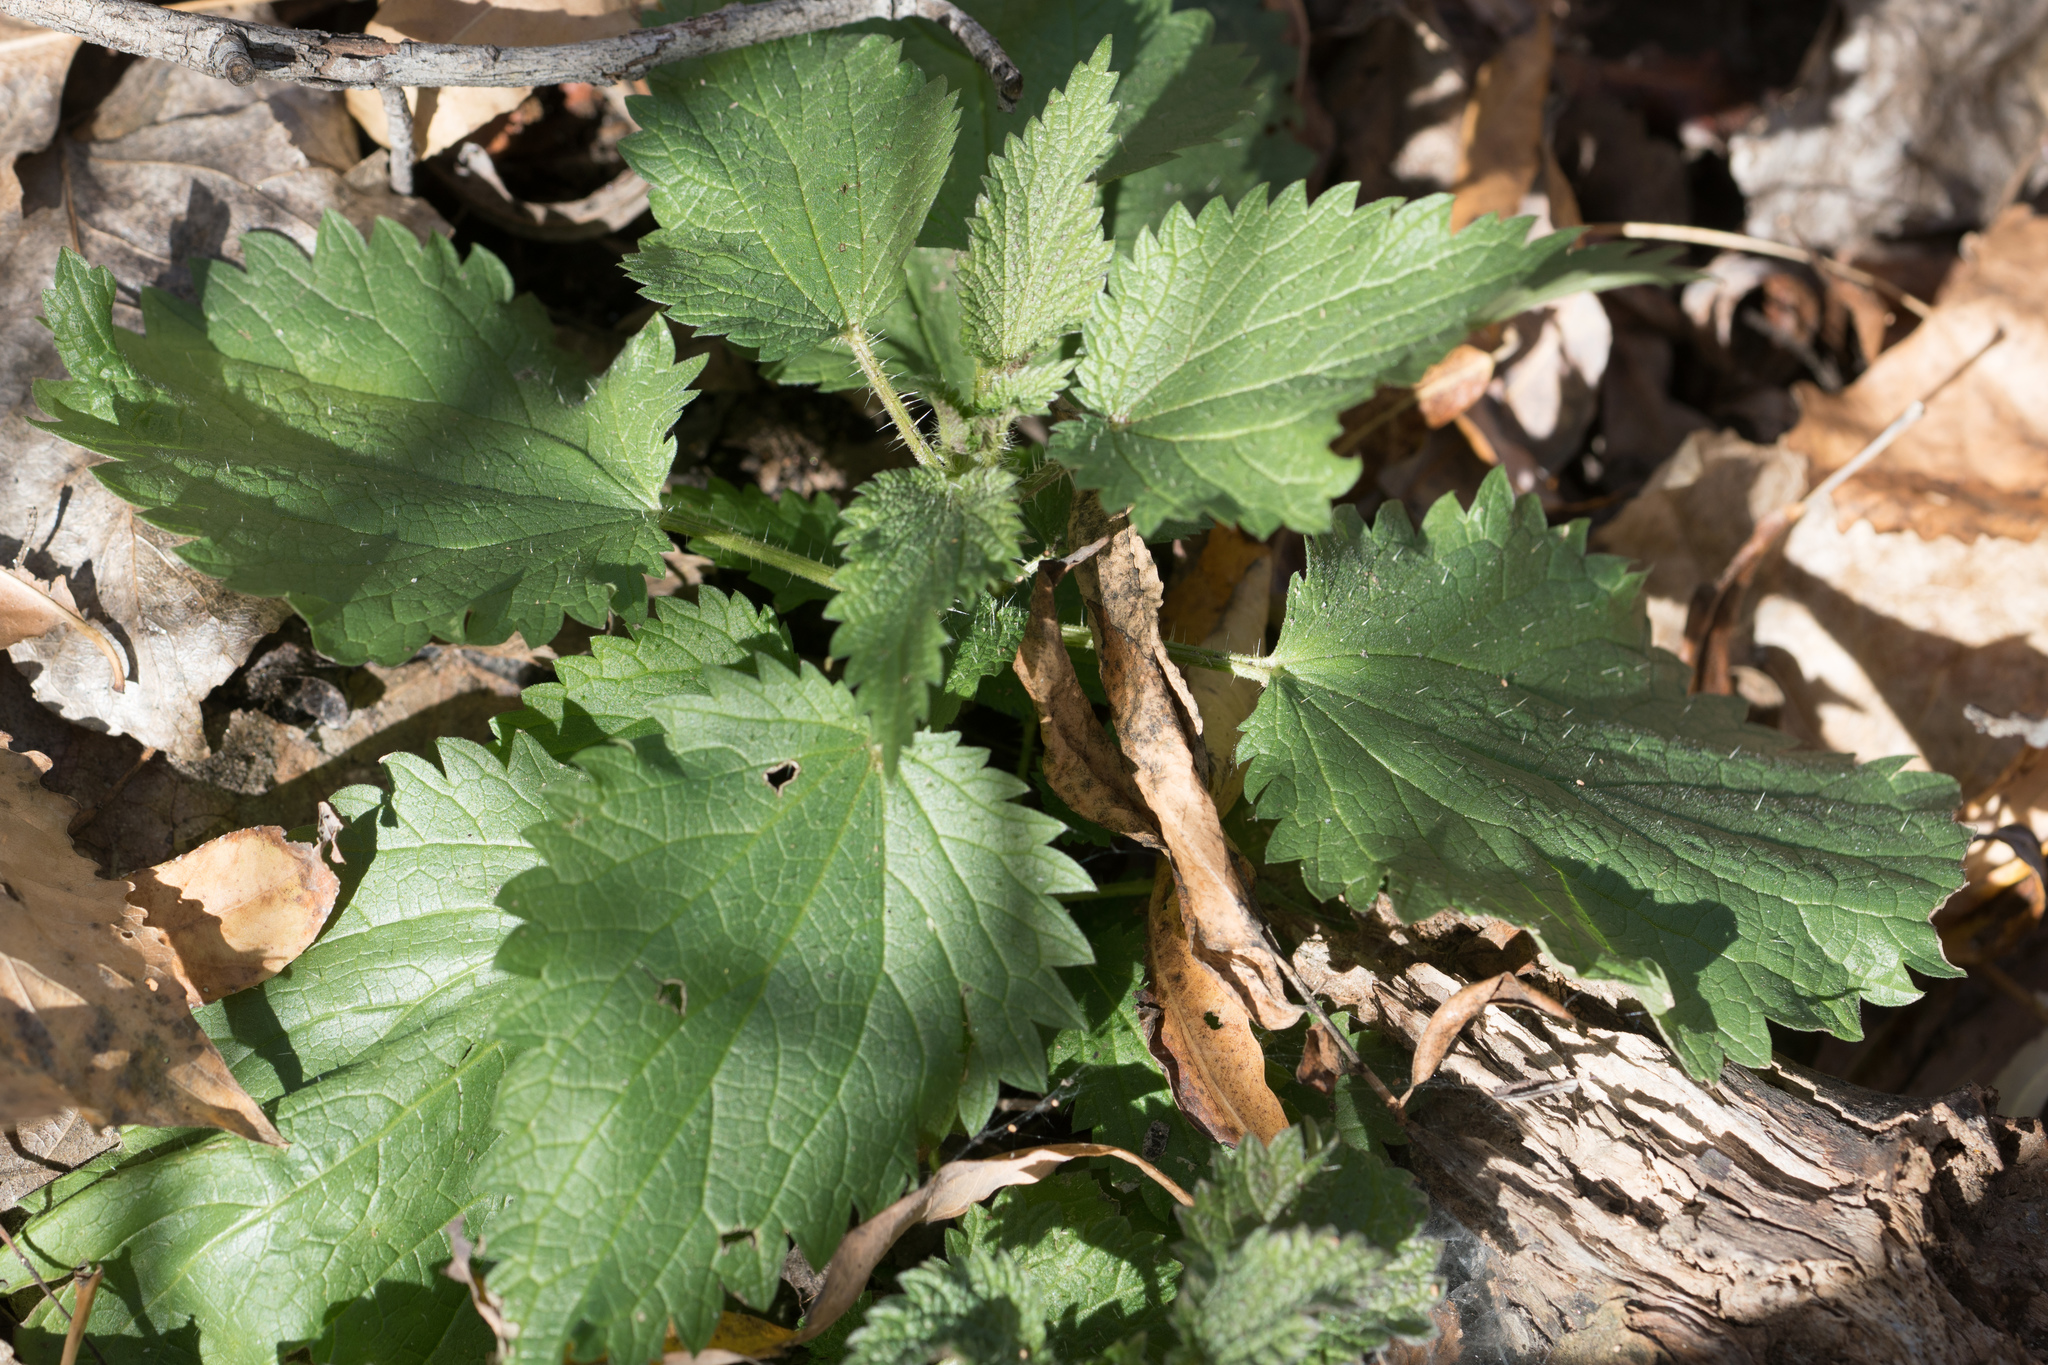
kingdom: Plantae
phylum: Tracheophyta
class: Magnoliopsida
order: Rosales
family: Urticaceae
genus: Urtica
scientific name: Urtica dioica
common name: Common nettle
